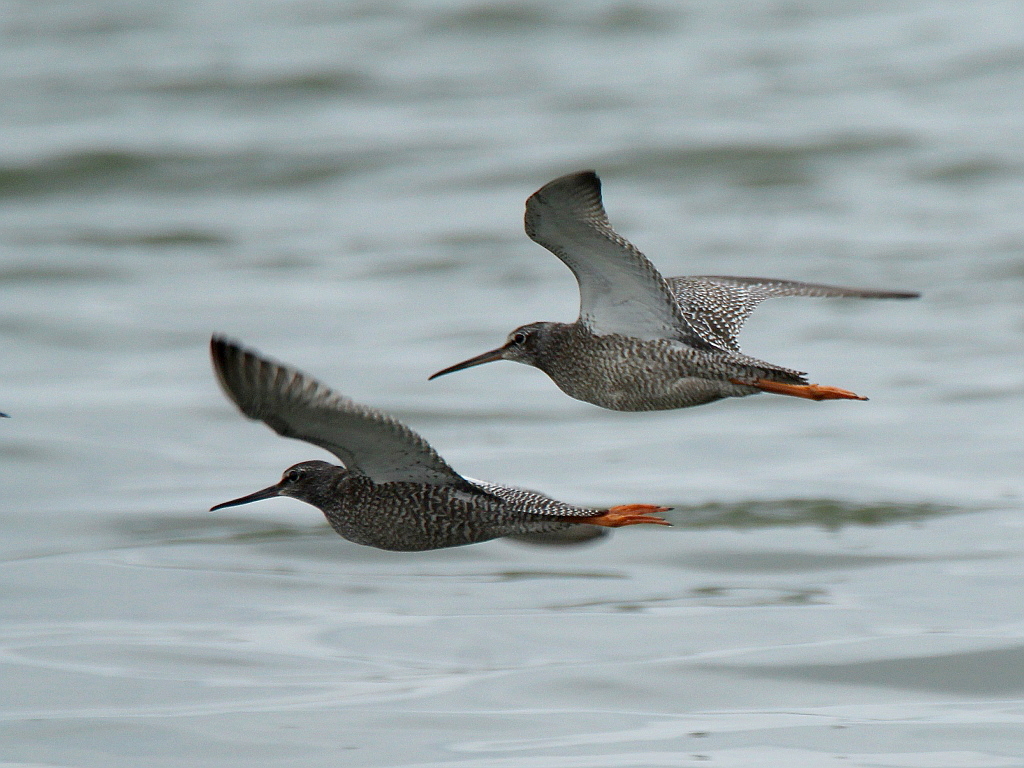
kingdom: Animalia
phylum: Chordata
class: Aves
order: Charadriiformes
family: Scolopacidae
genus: Tringa
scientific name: Tringa erythropus
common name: Spotted redshank
